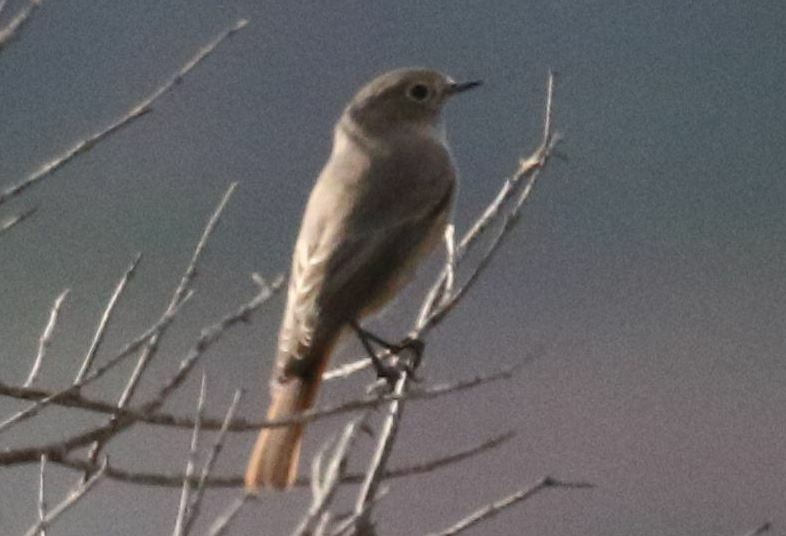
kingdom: Animalia
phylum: Chordata
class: Aves
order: Passeriformes
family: Muscicapidae
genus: Phoenicurus
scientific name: Phoenicurus ochruros
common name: Black redstart
